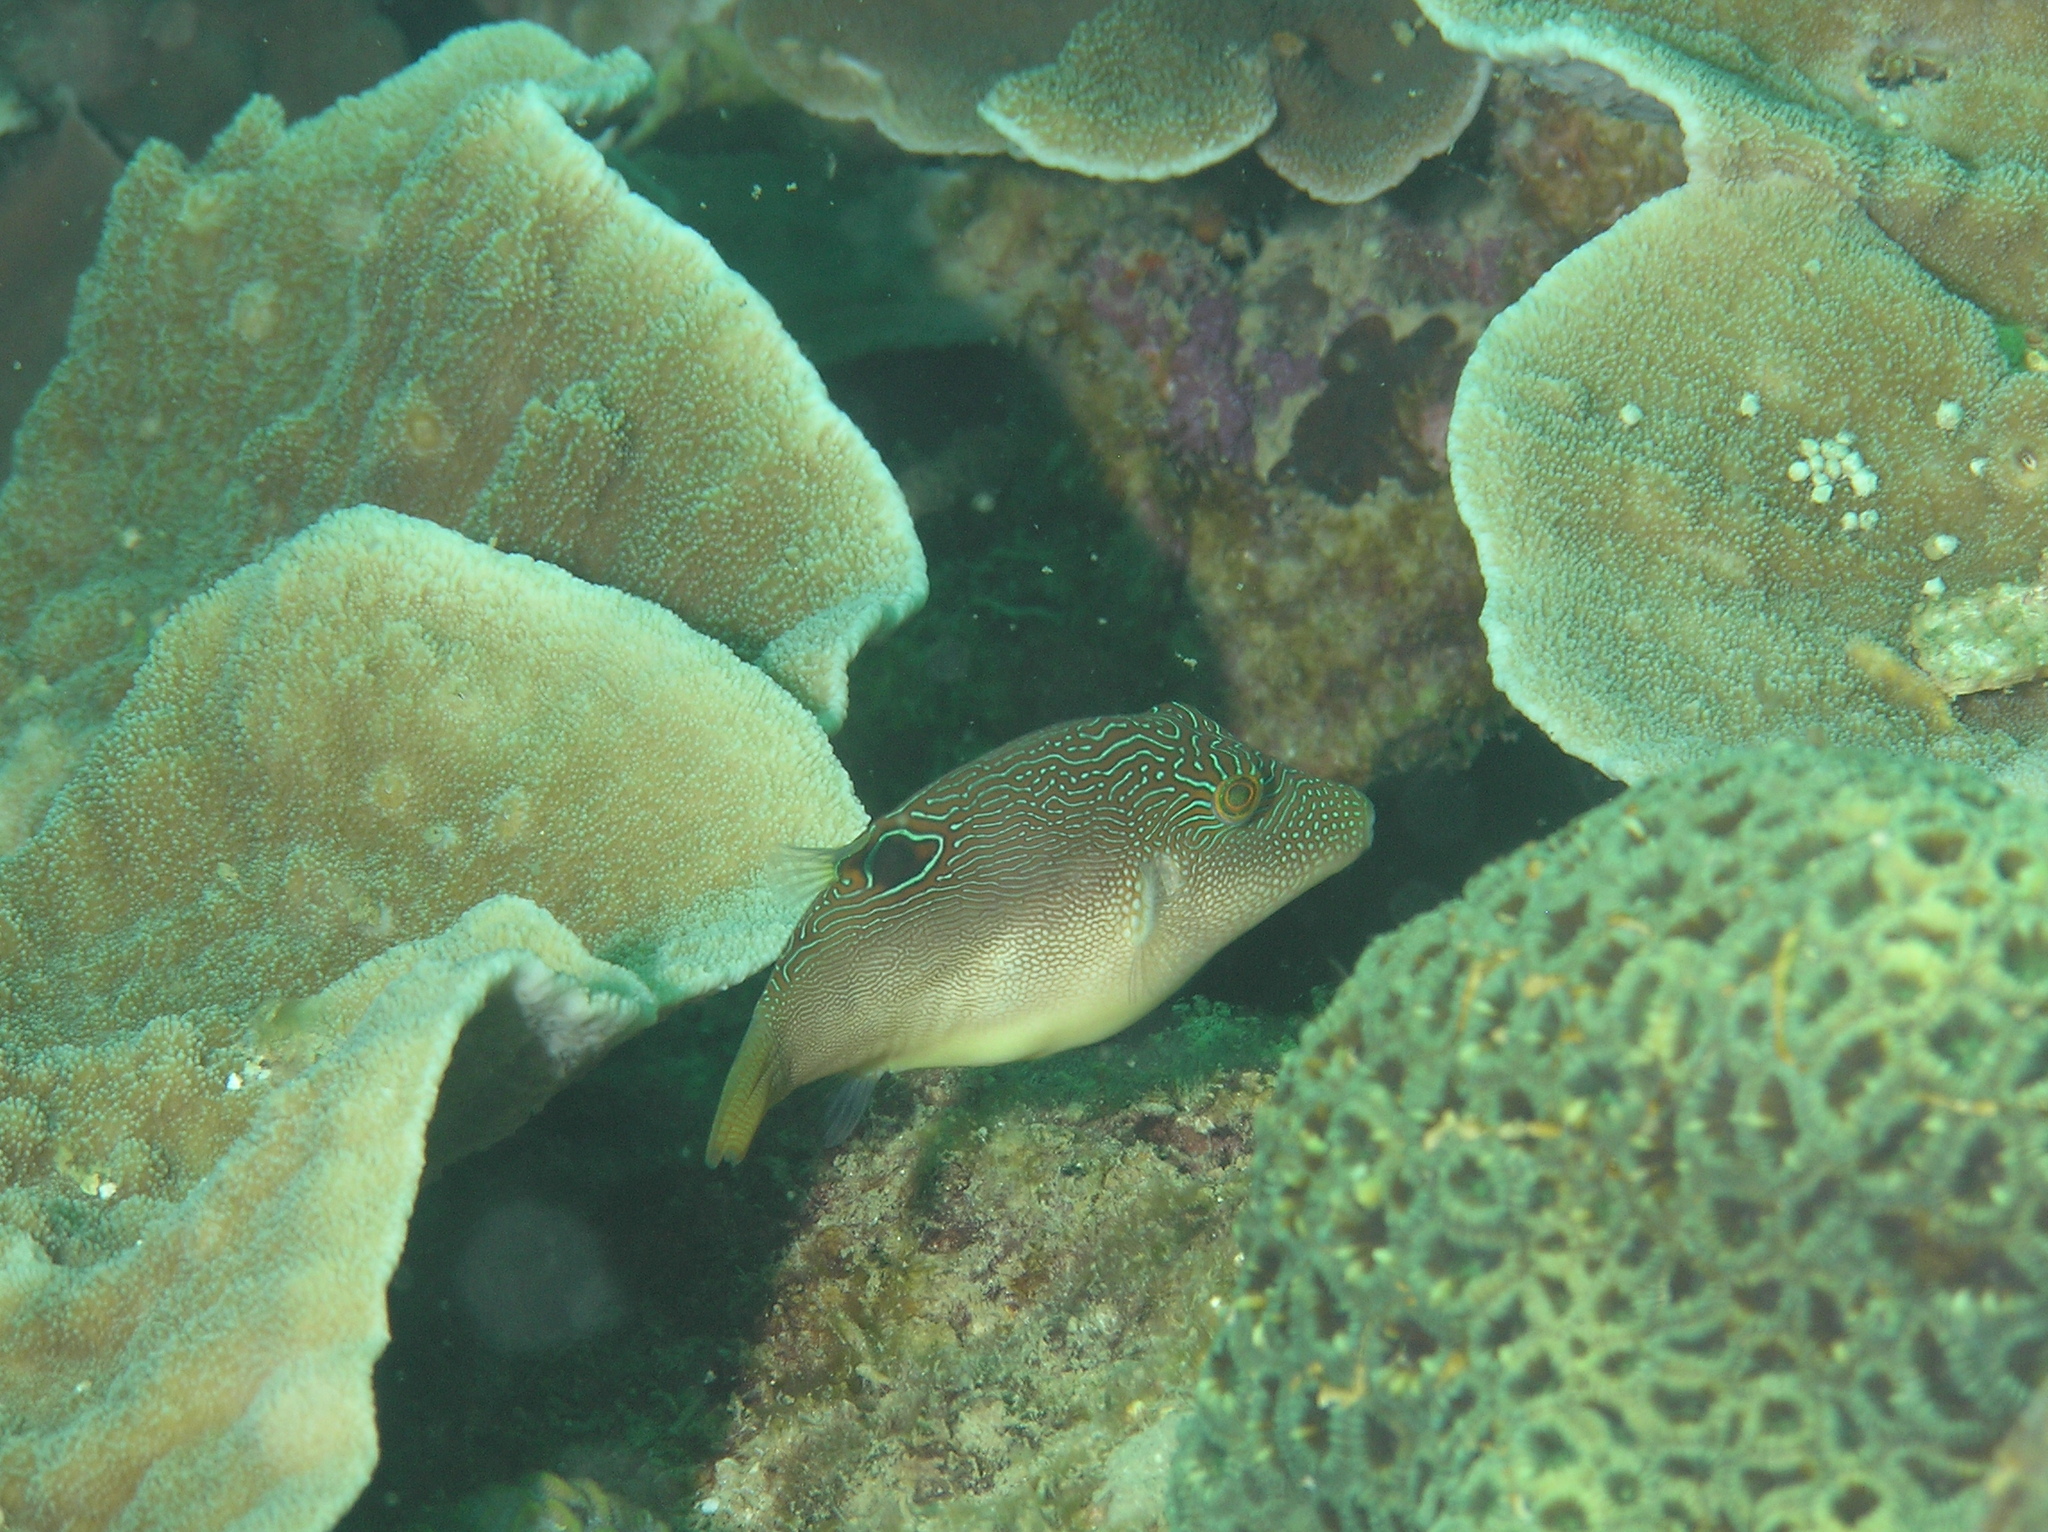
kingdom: Animalia
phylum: Chordata
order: Tetraodontiformes
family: Tetraodontidae
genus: Canthigaster
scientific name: Canthigaster compressa
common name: Compressed toby
